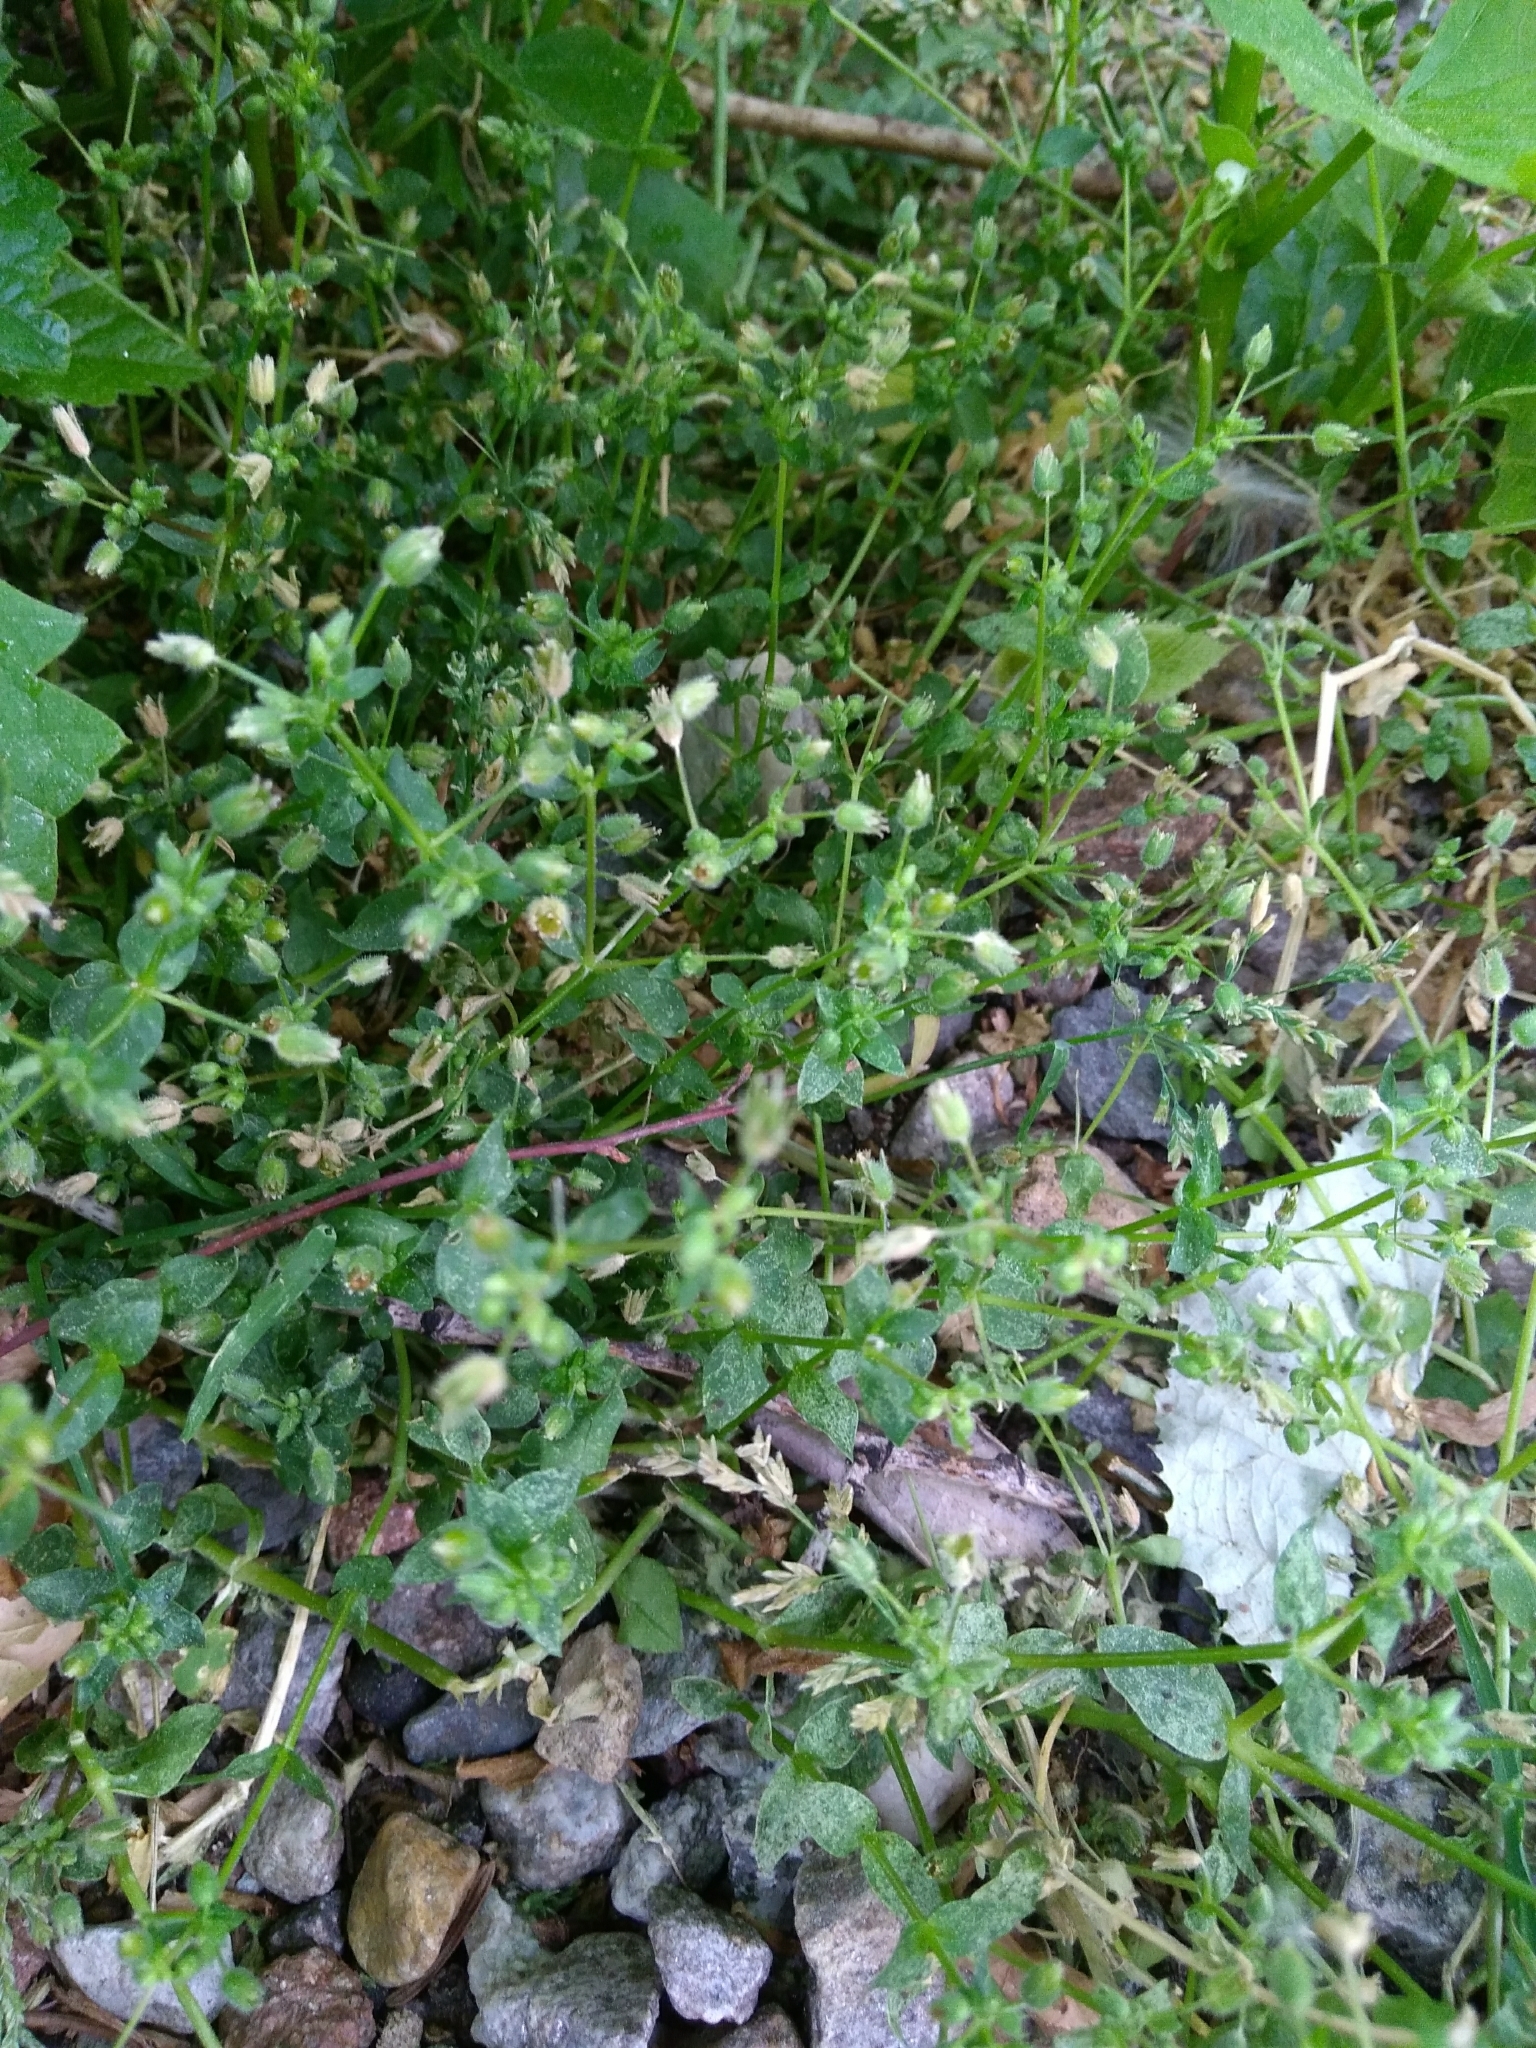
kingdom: Plantae
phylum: Tracheophyta
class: Magnoliopsida
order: Caryophyllales
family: Caryophyllaceae
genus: Stellaria
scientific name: Stellaria media
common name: Common chickweed
